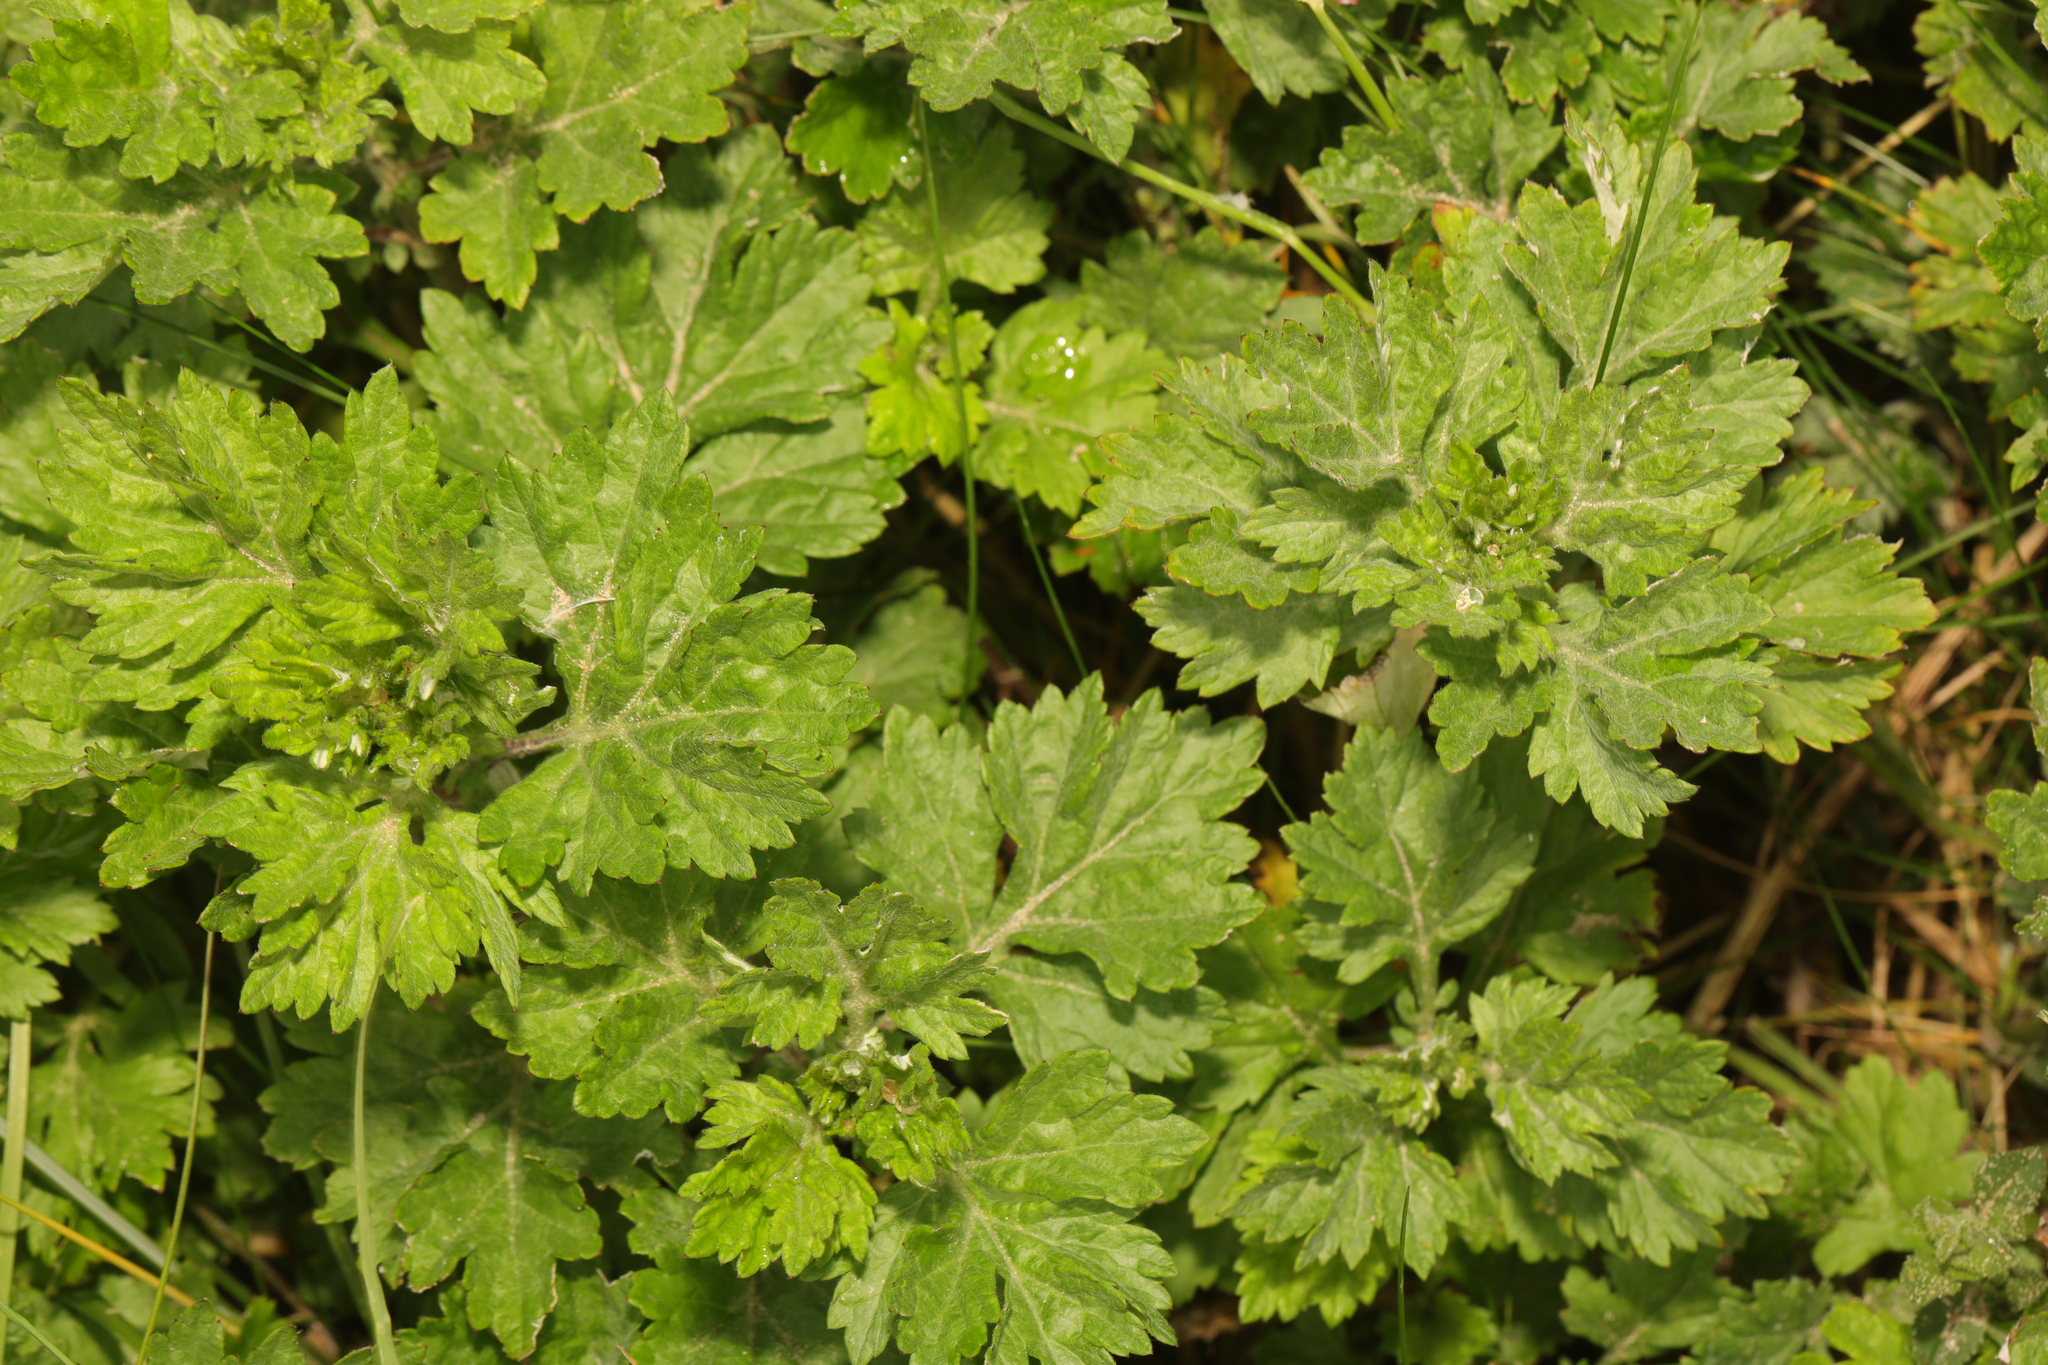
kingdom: Plantae
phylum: Tracheophyta
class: Magnoliopsida
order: Asterales
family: Asteraceae
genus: Artemisia
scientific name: Artemisia vulgaris
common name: Mugwort
